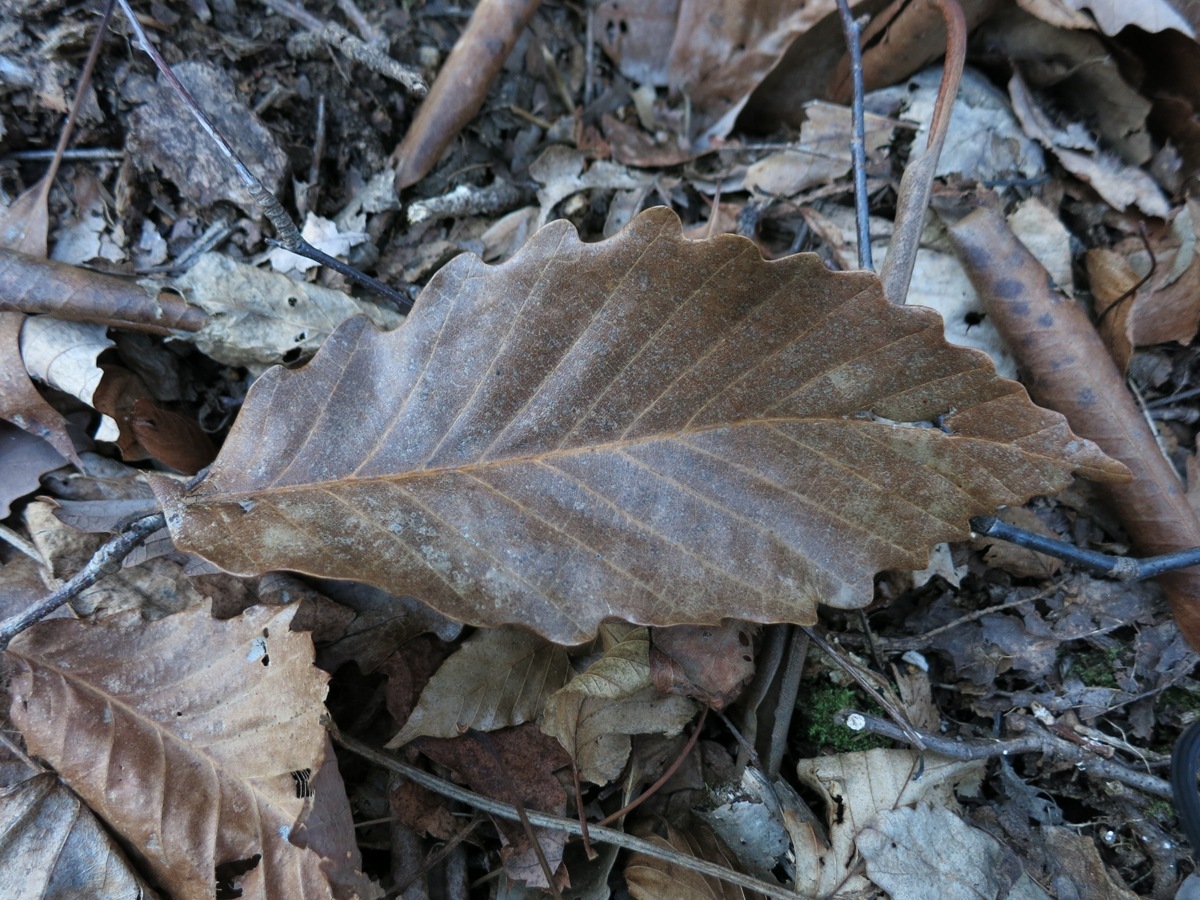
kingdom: Plantae
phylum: Tracheophyta
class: Magnoliopsida
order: Fagales
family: Fagaceae
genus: Quercus
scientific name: Quercus montana
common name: Chestnut oak
